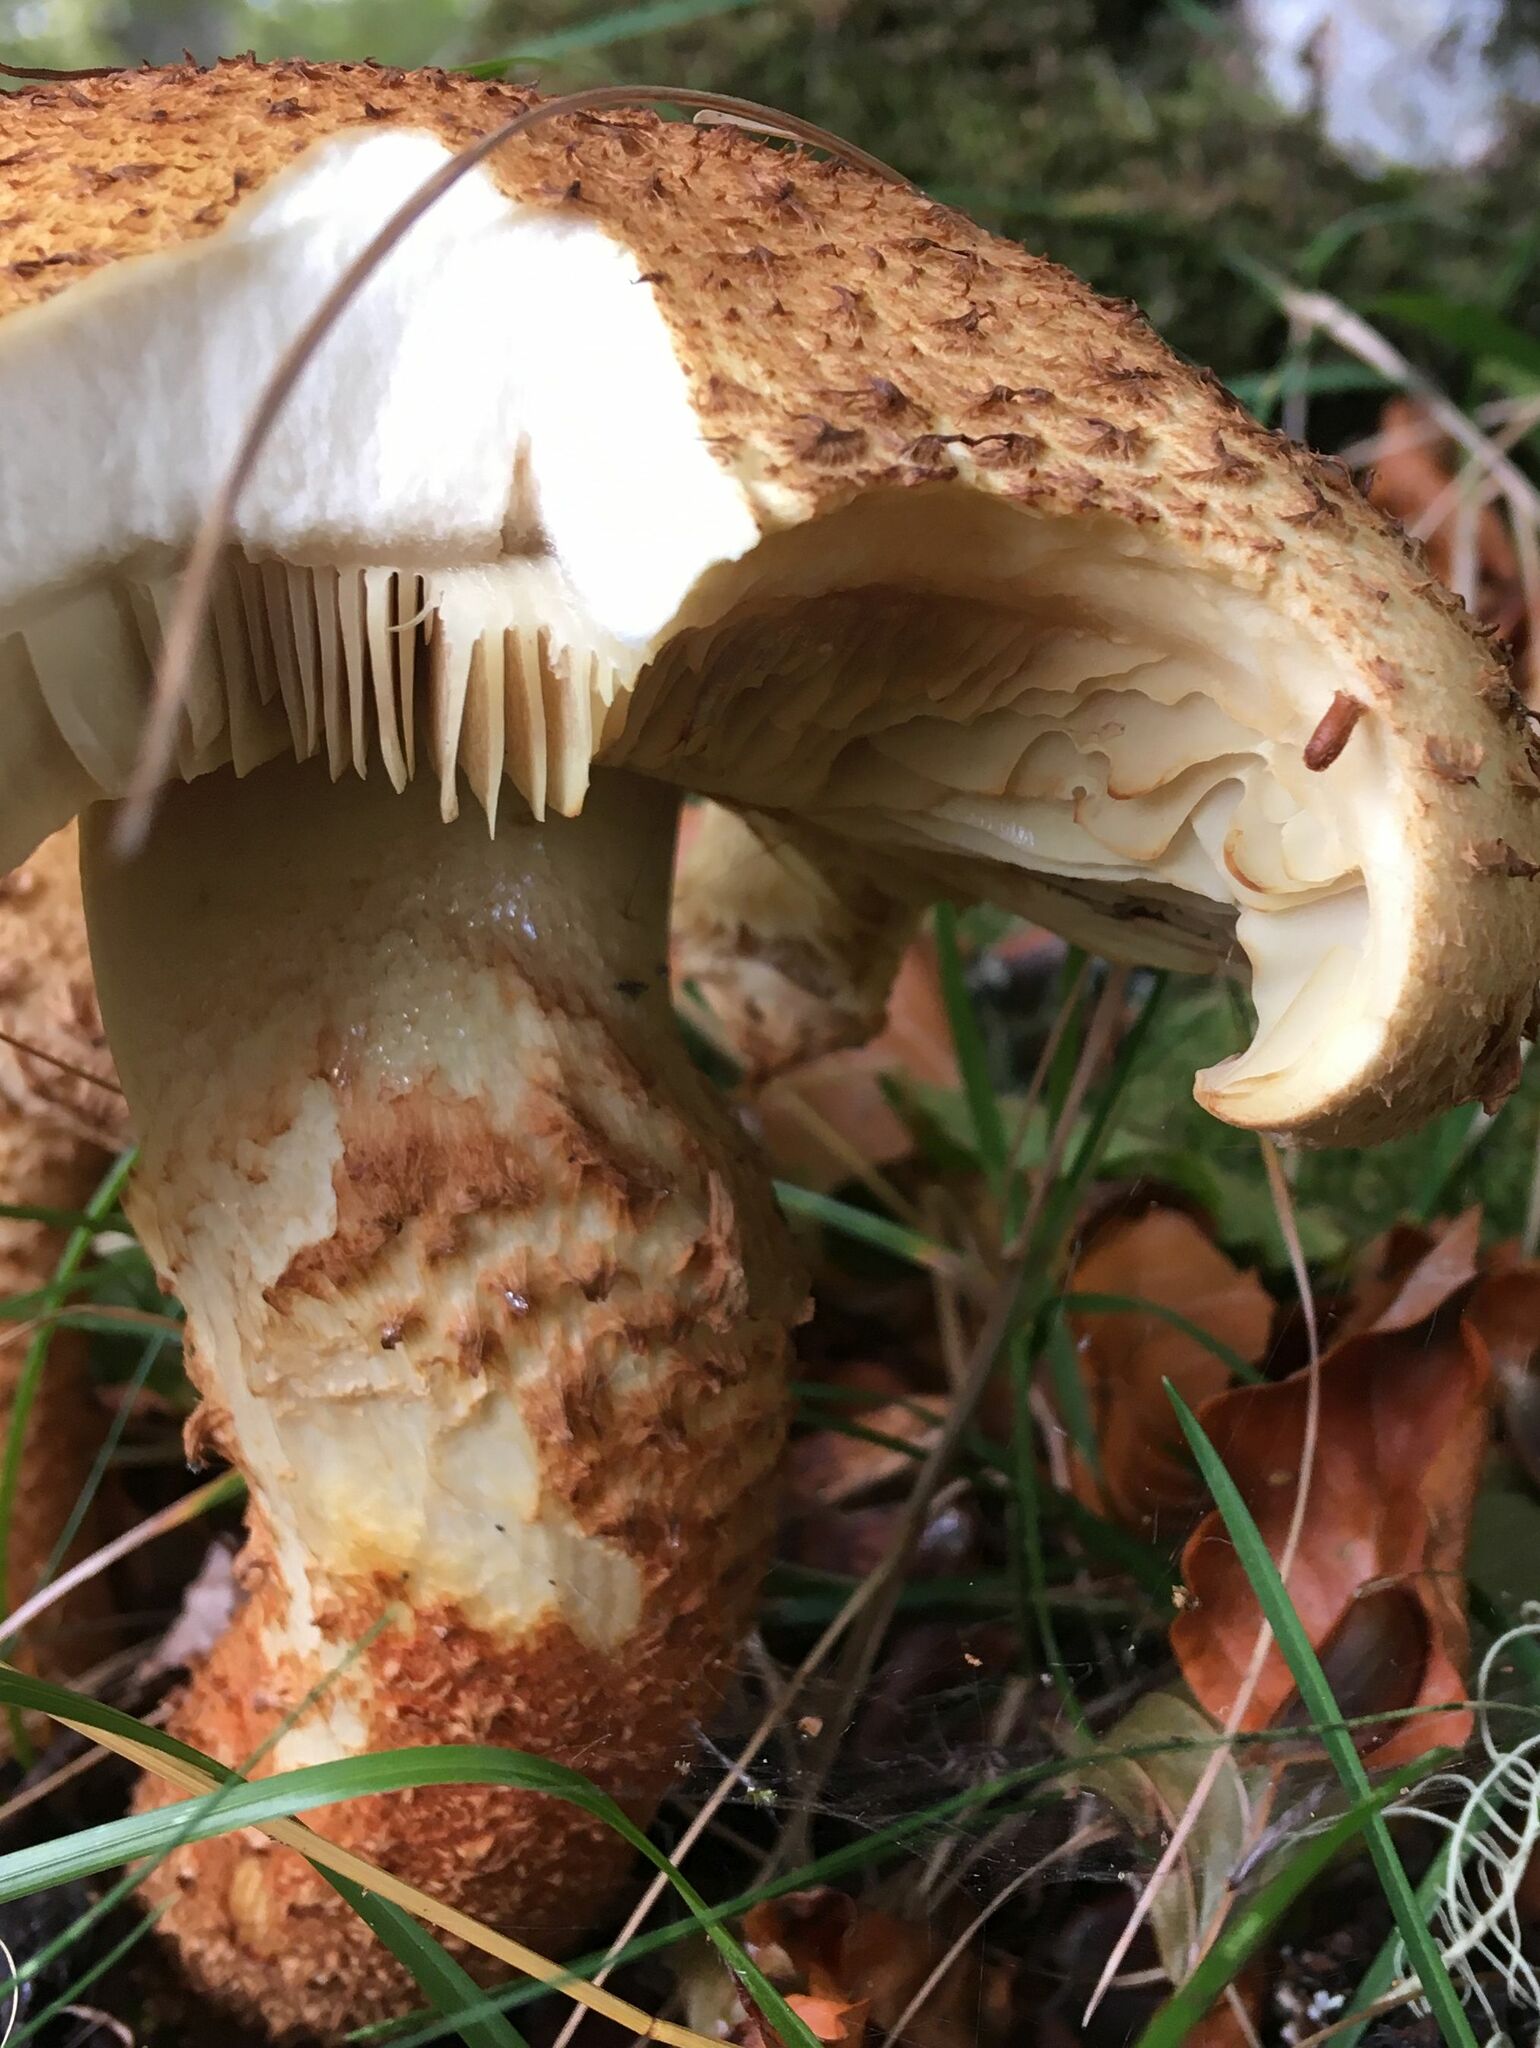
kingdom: Fungi
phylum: Basidiomycota
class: Agaricomycetes
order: Agaricales
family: Strophariaceae
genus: Pholiota
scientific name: Pholiota squarrosa
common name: Shaggy pholiota
